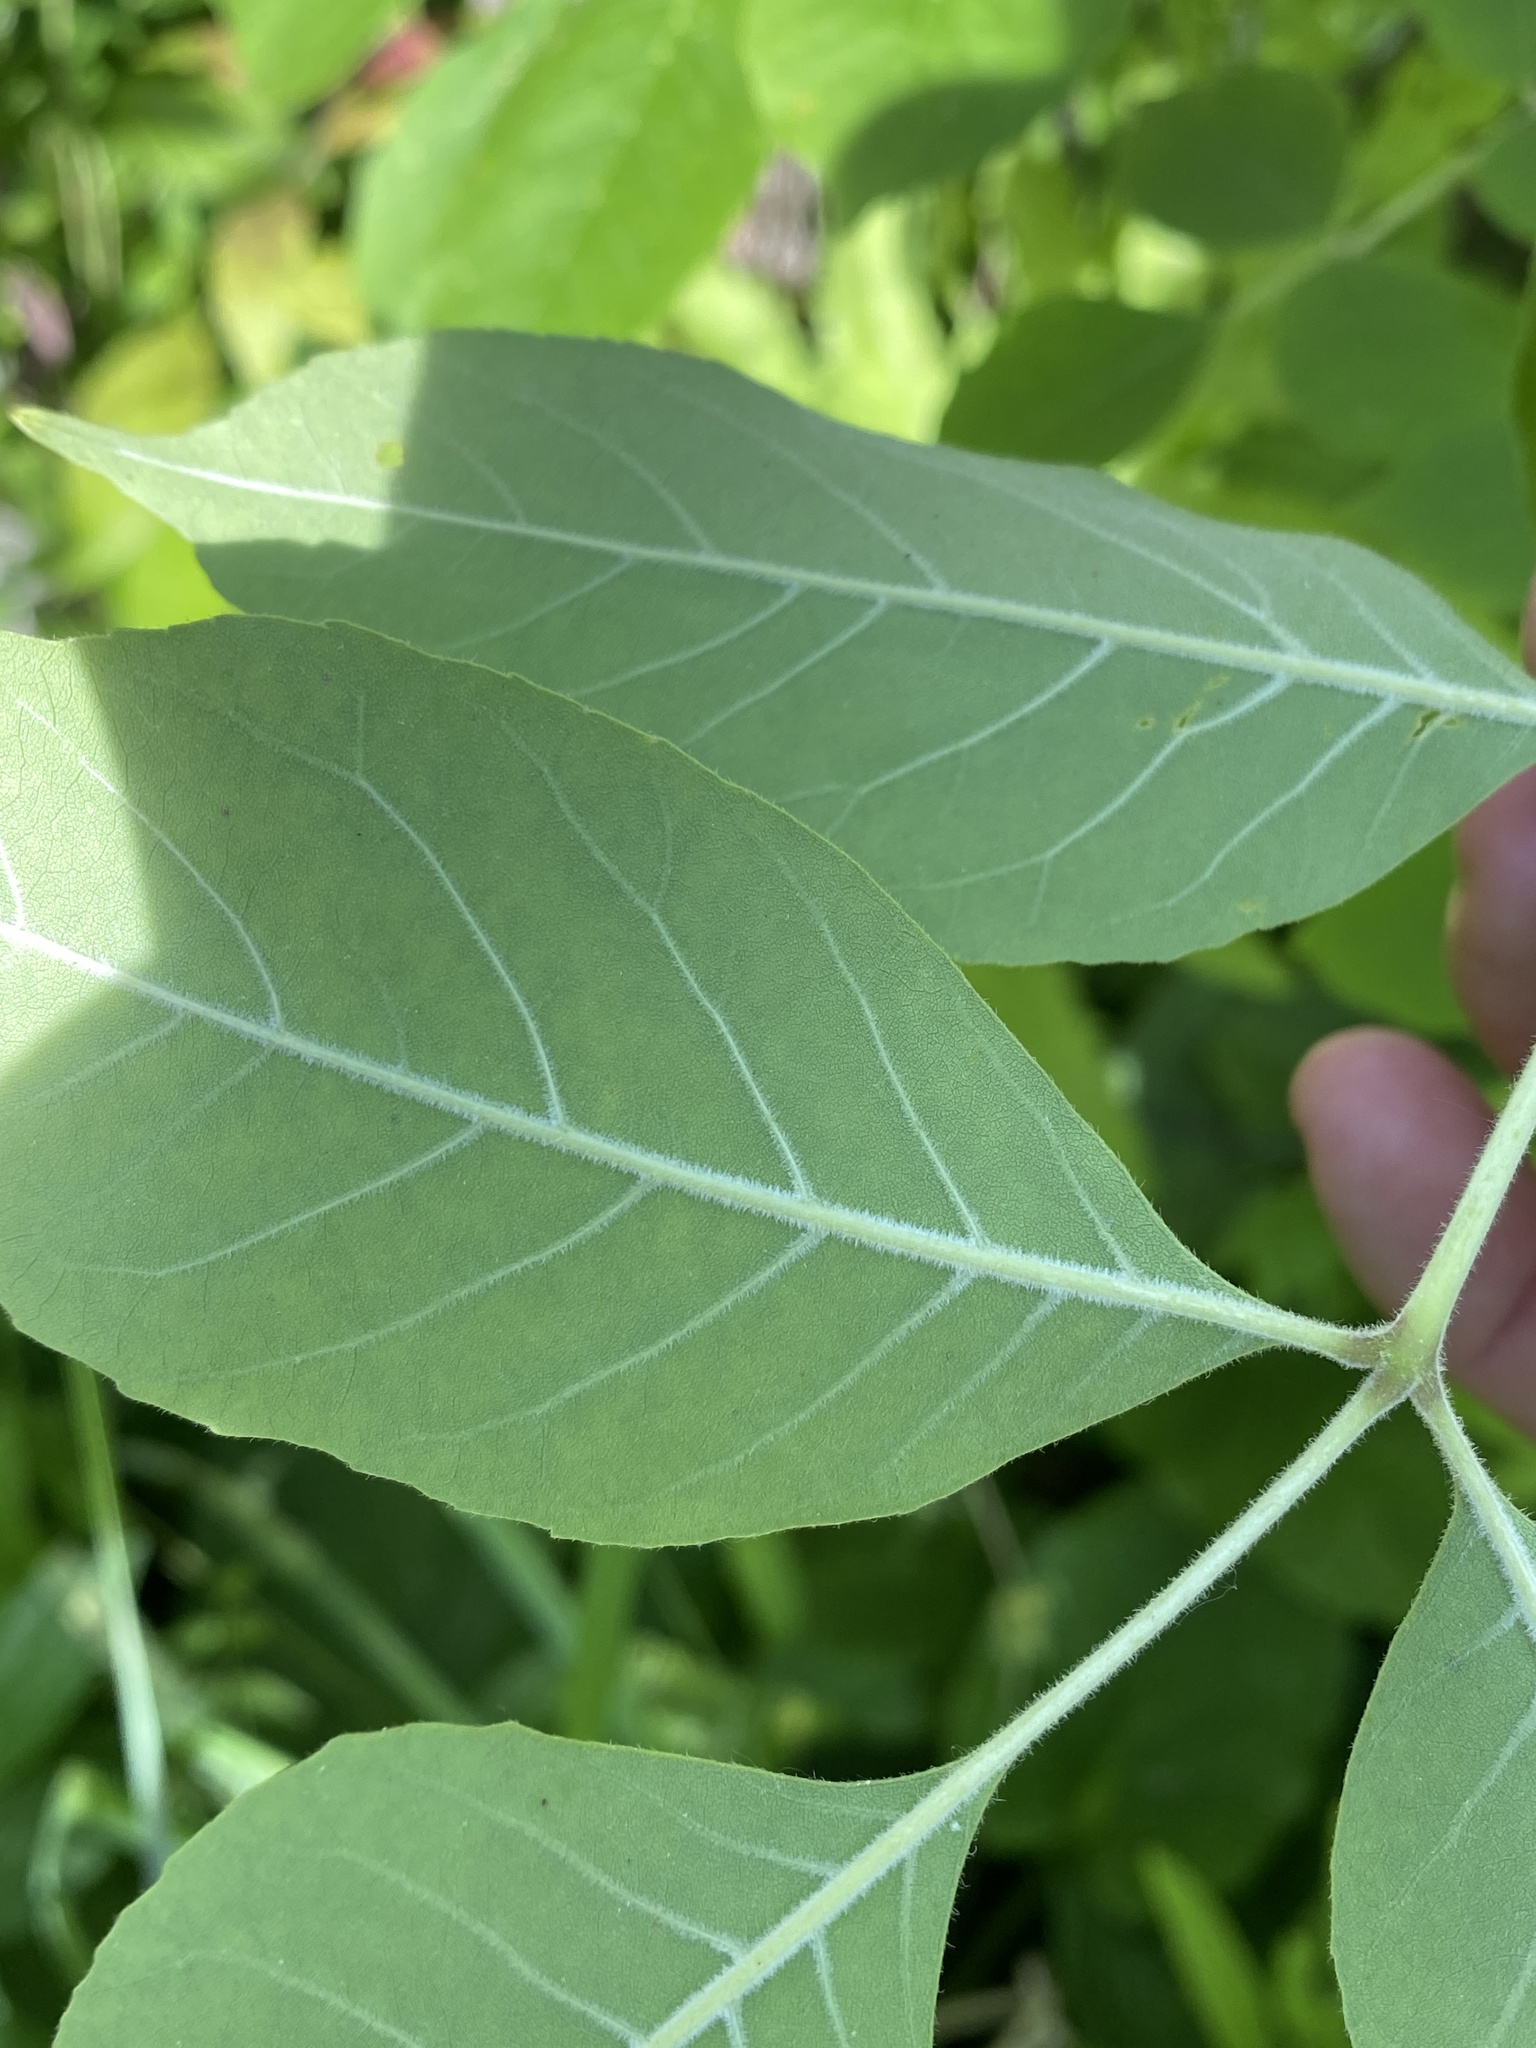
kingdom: Plantae
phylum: Tracheophyta
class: Magnoliopsida
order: Lamiales
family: Oleaceae
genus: Fraxinus
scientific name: Fraxinus profunda
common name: Pumpkin ash
